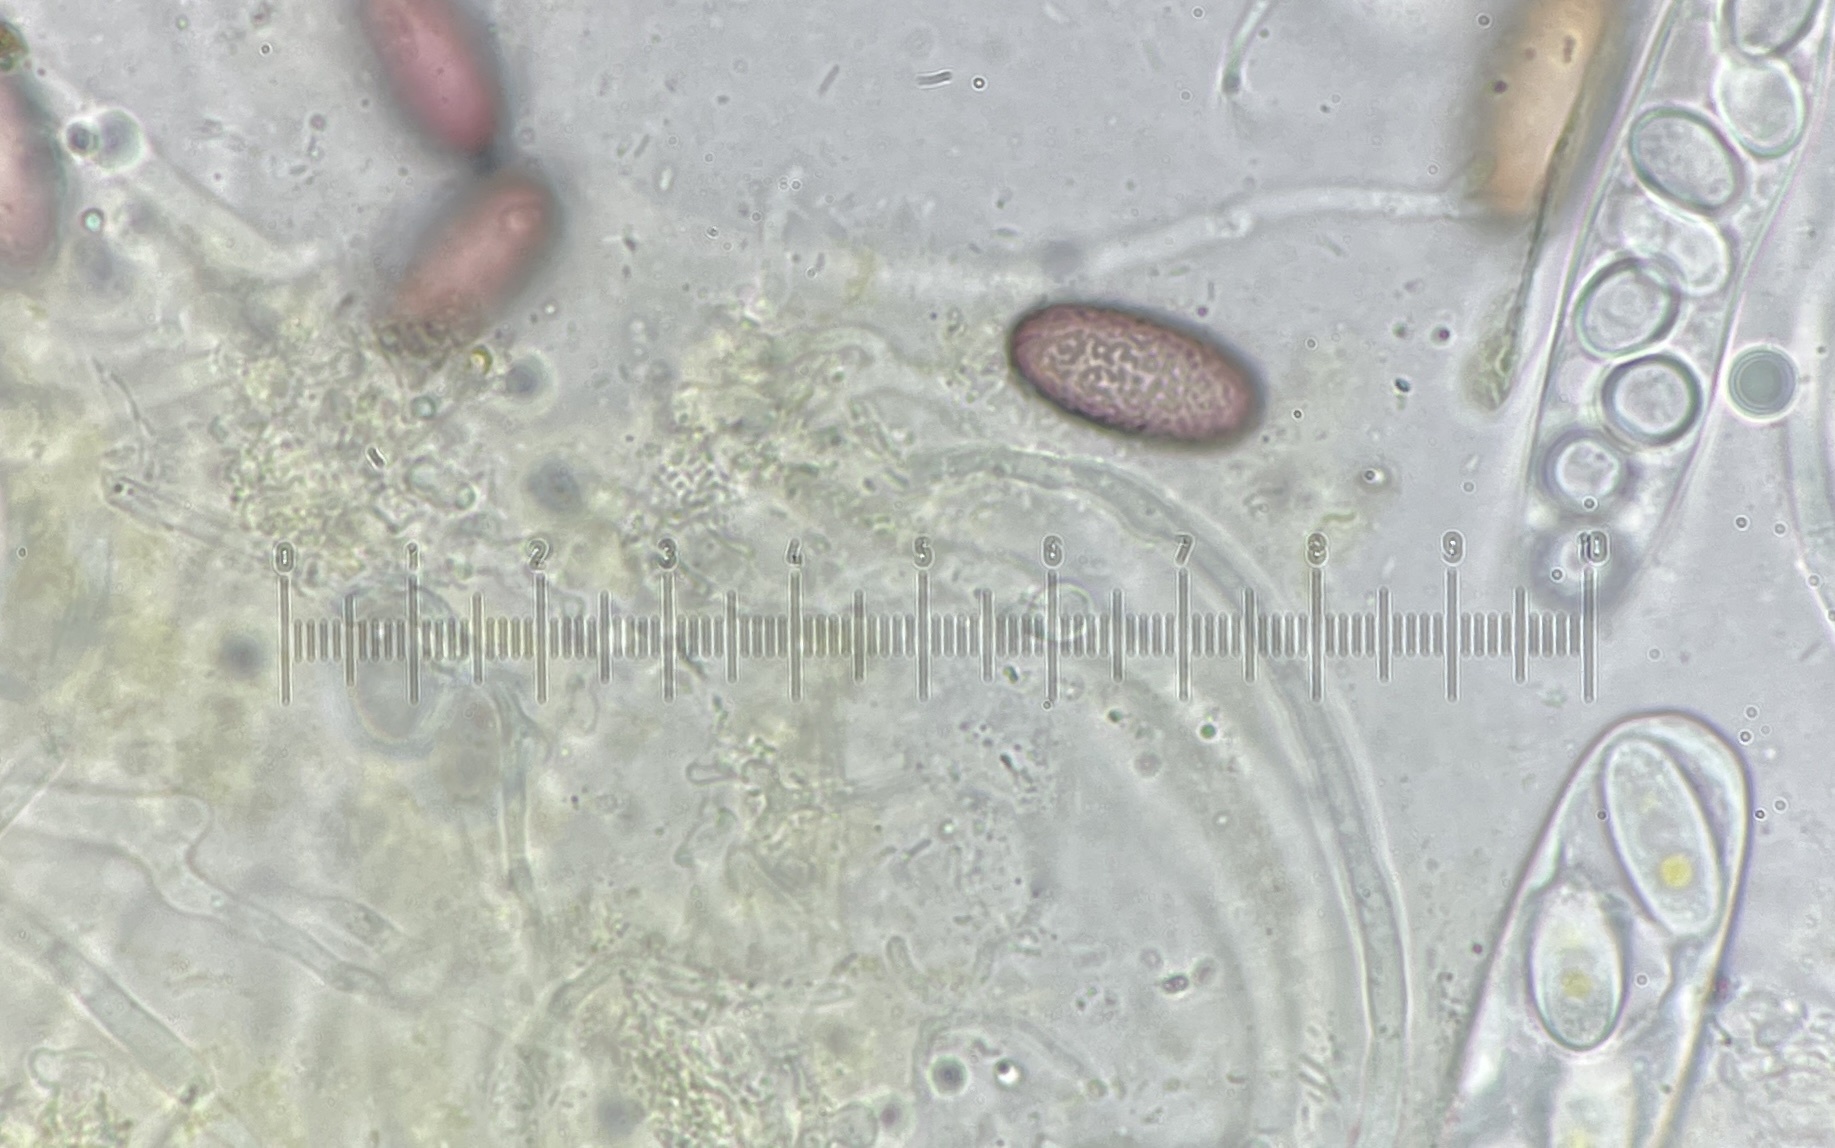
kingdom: Fungi
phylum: Ascomycota
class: Pezizomycetes
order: Pezizales
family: Ascobolaceae
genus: Ascobolus
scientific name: Ascobolus michaudii
